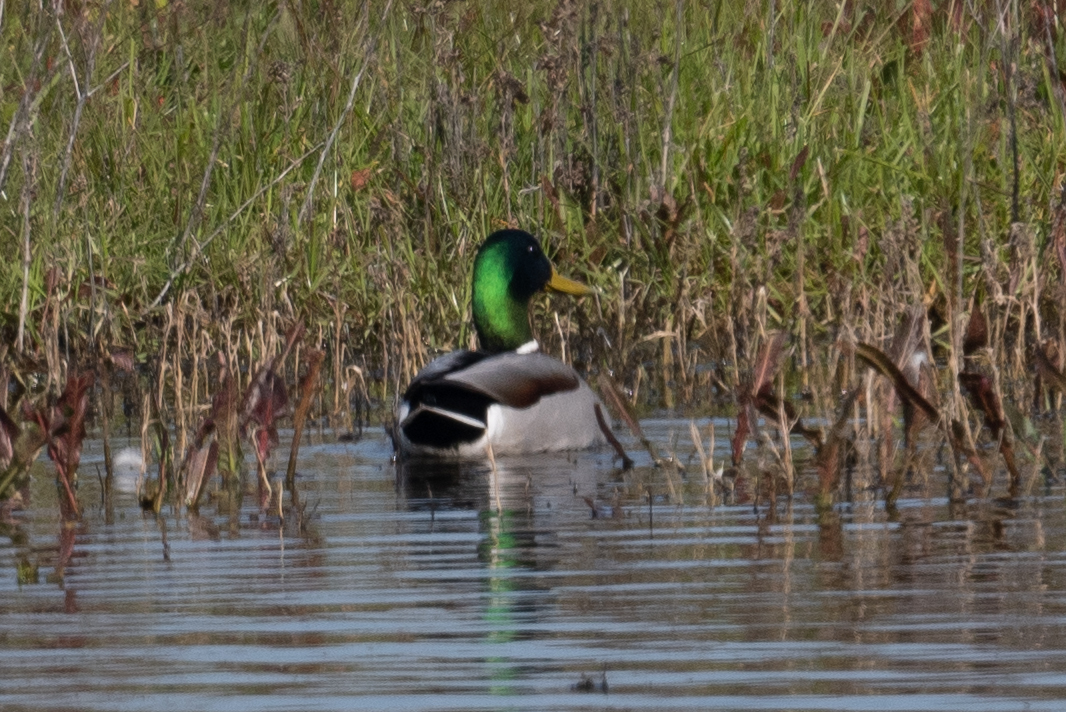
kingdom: Animalia
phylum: Chordata
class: Aves
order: Anseriformes
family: Anatidae
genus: Anas
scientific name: Anas platyrhynchos
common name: Mallard
